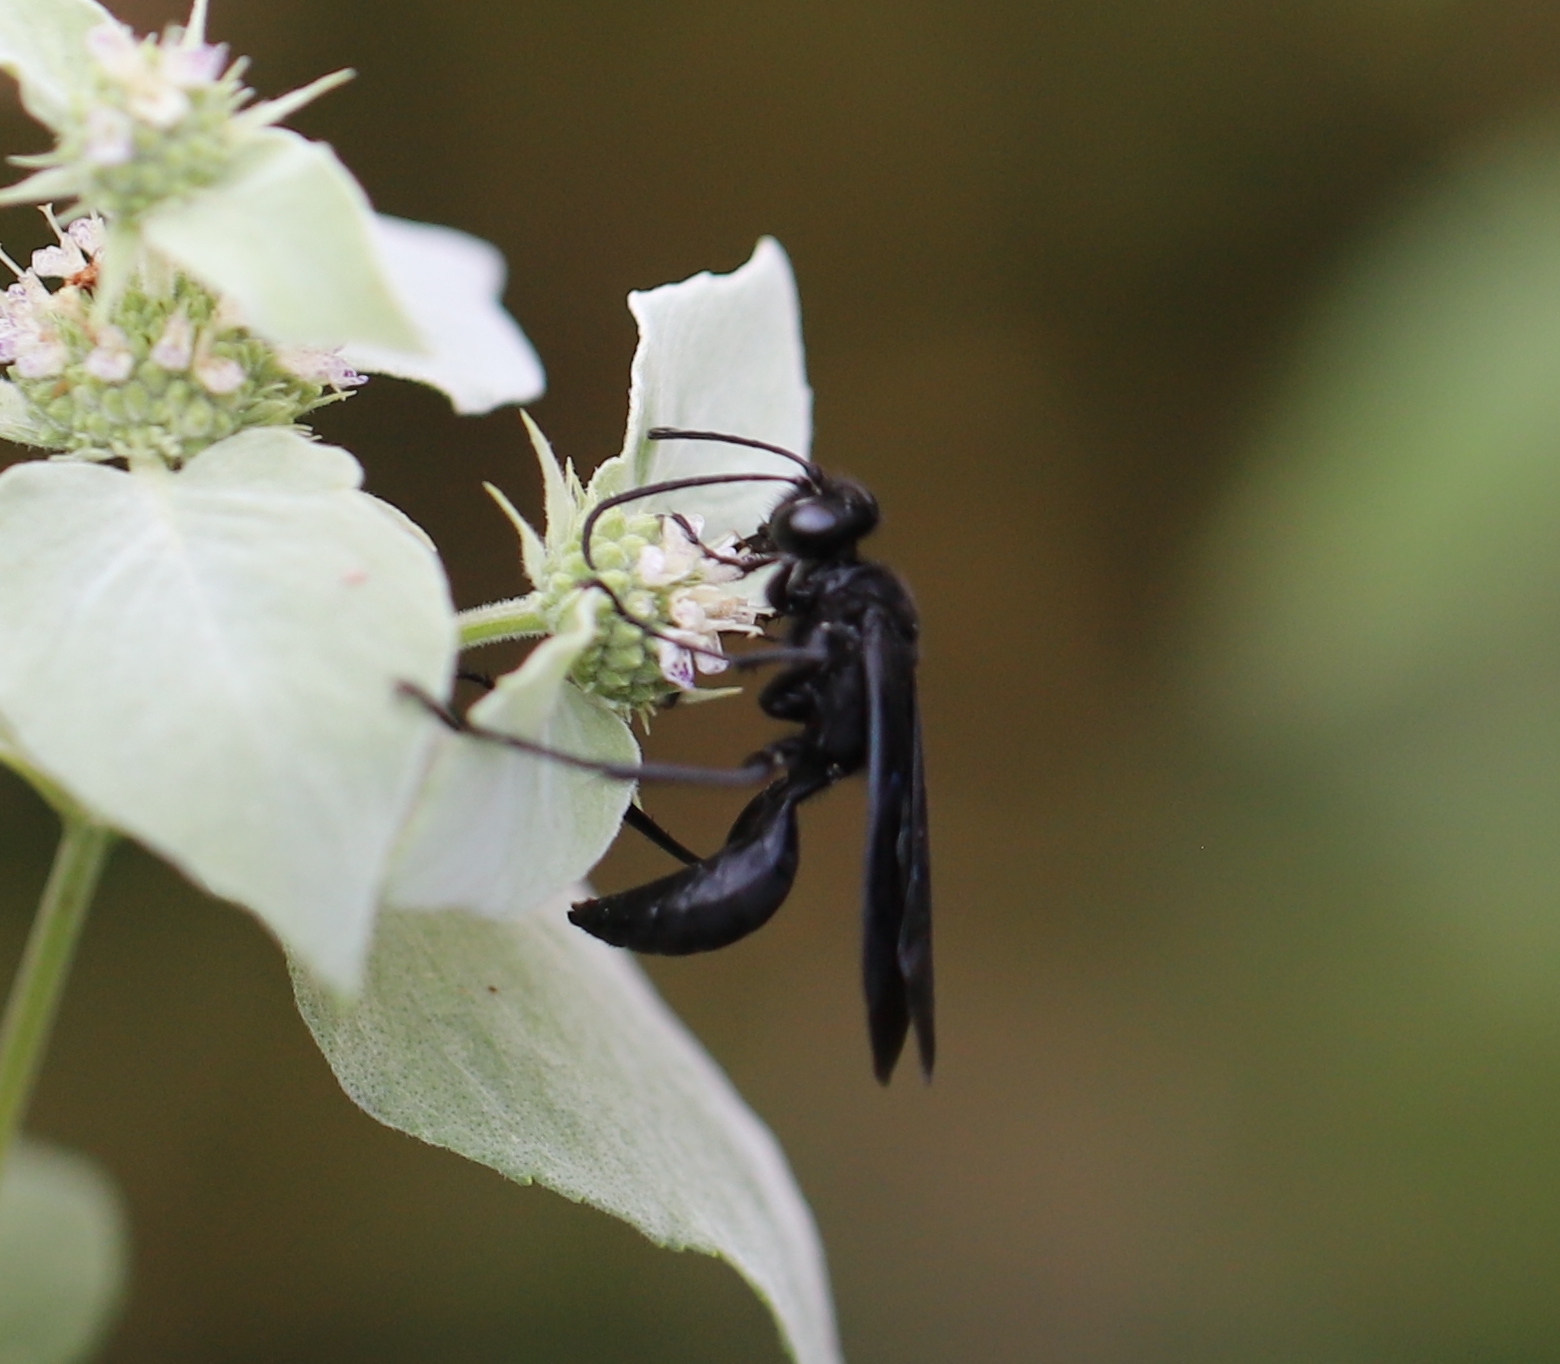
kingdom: Animalia
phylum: Arthropoda
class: Insecta
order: Hymenoptera
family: Sphecidae
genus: Sphex
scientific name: Sphex pensylvanicus
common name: Great black digger wasp
